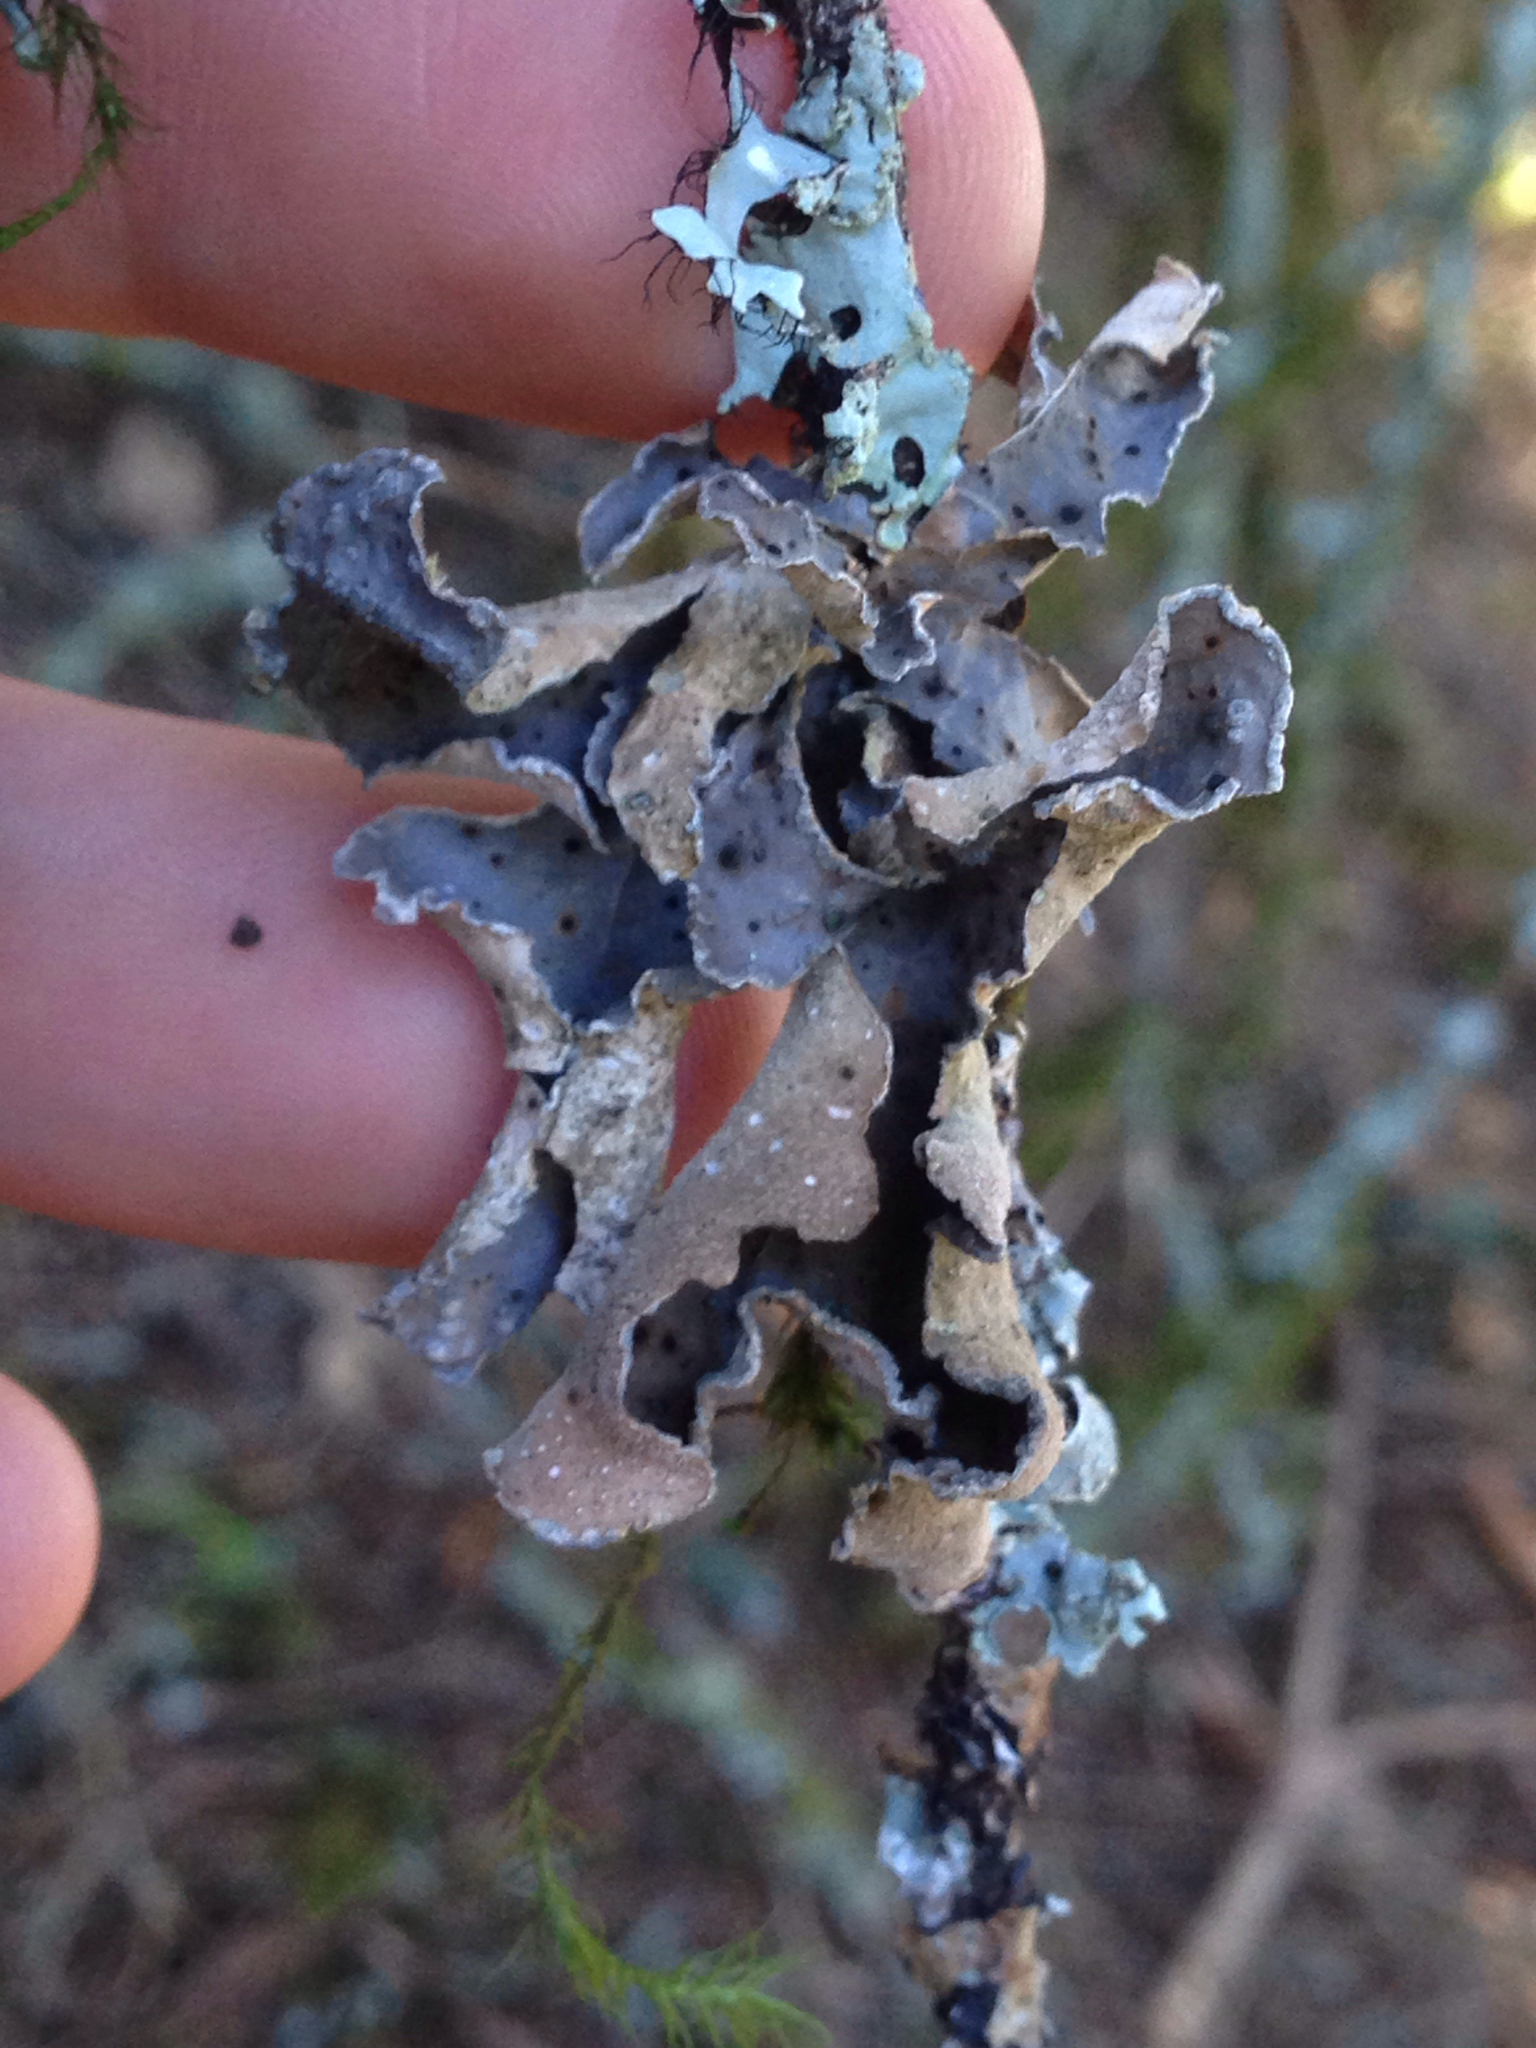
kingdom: Fungi
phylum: Ascomycota
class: Lecanoromycetes
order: Peltigerales
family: Lobariaceae
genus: Sticta
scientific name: Sticta limbata
